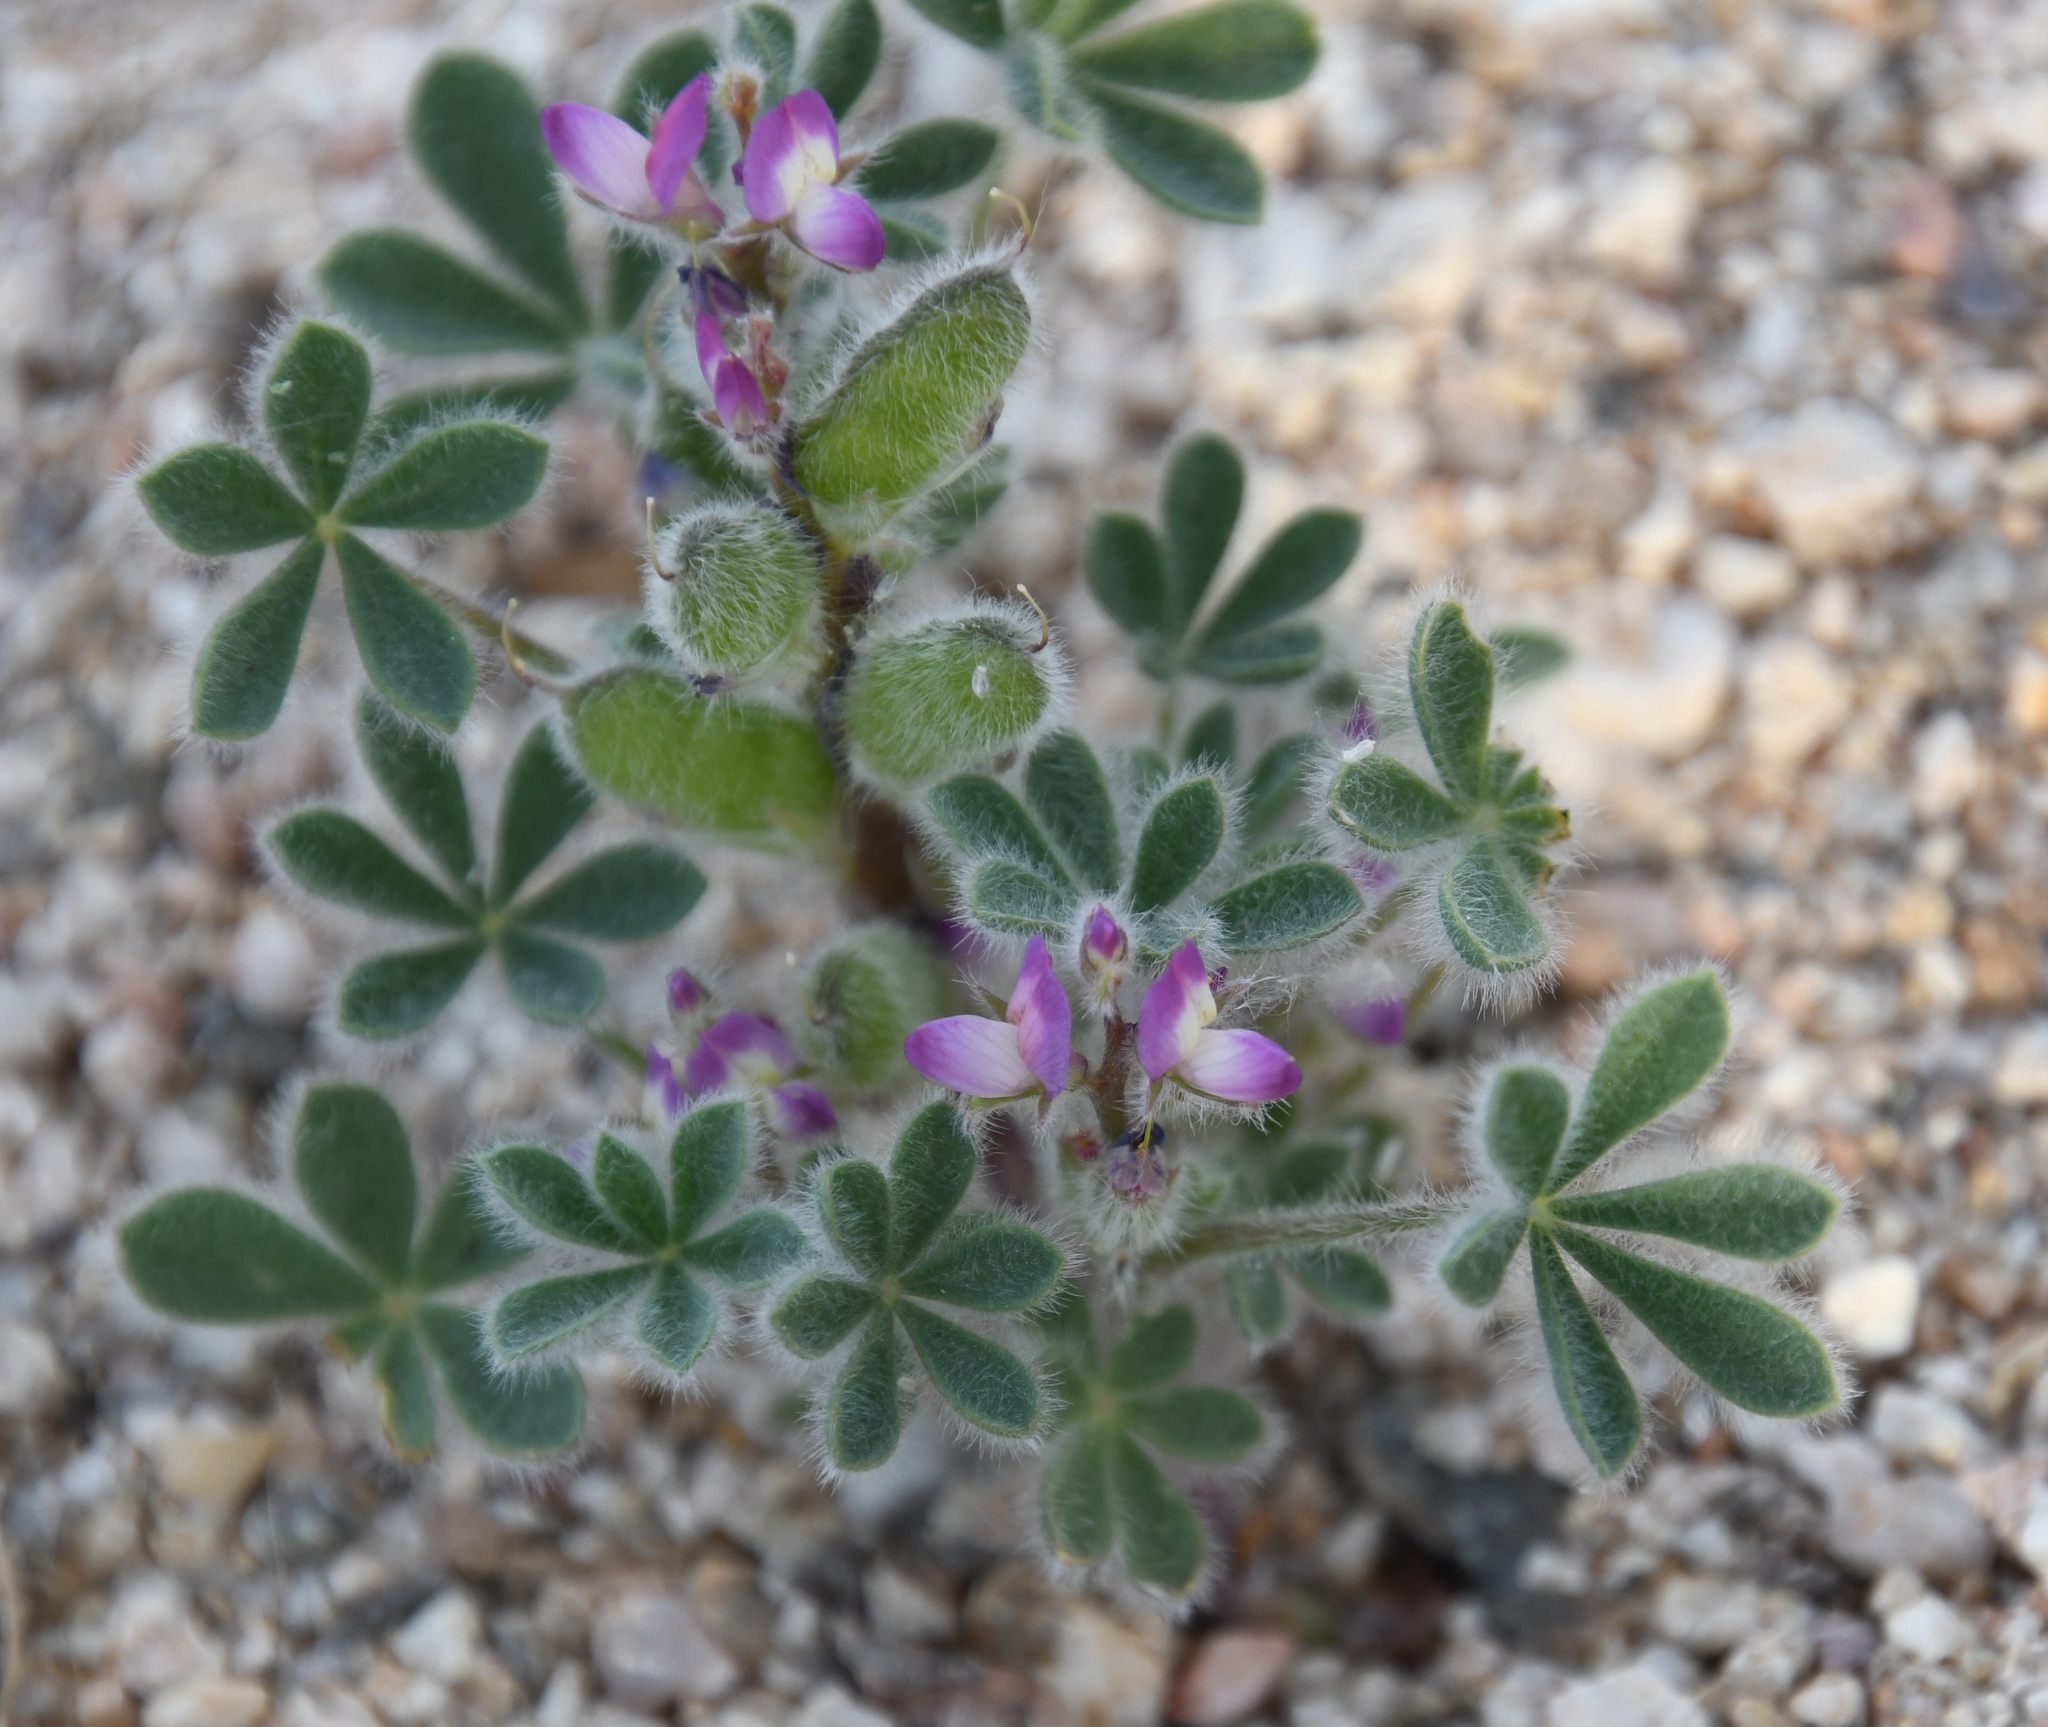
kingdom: Plantae
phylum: Tracheophyta
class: Magnoliopsida
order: Fabales
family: Fabaceae
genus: Lupinus
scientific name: Lupinus concinnus
